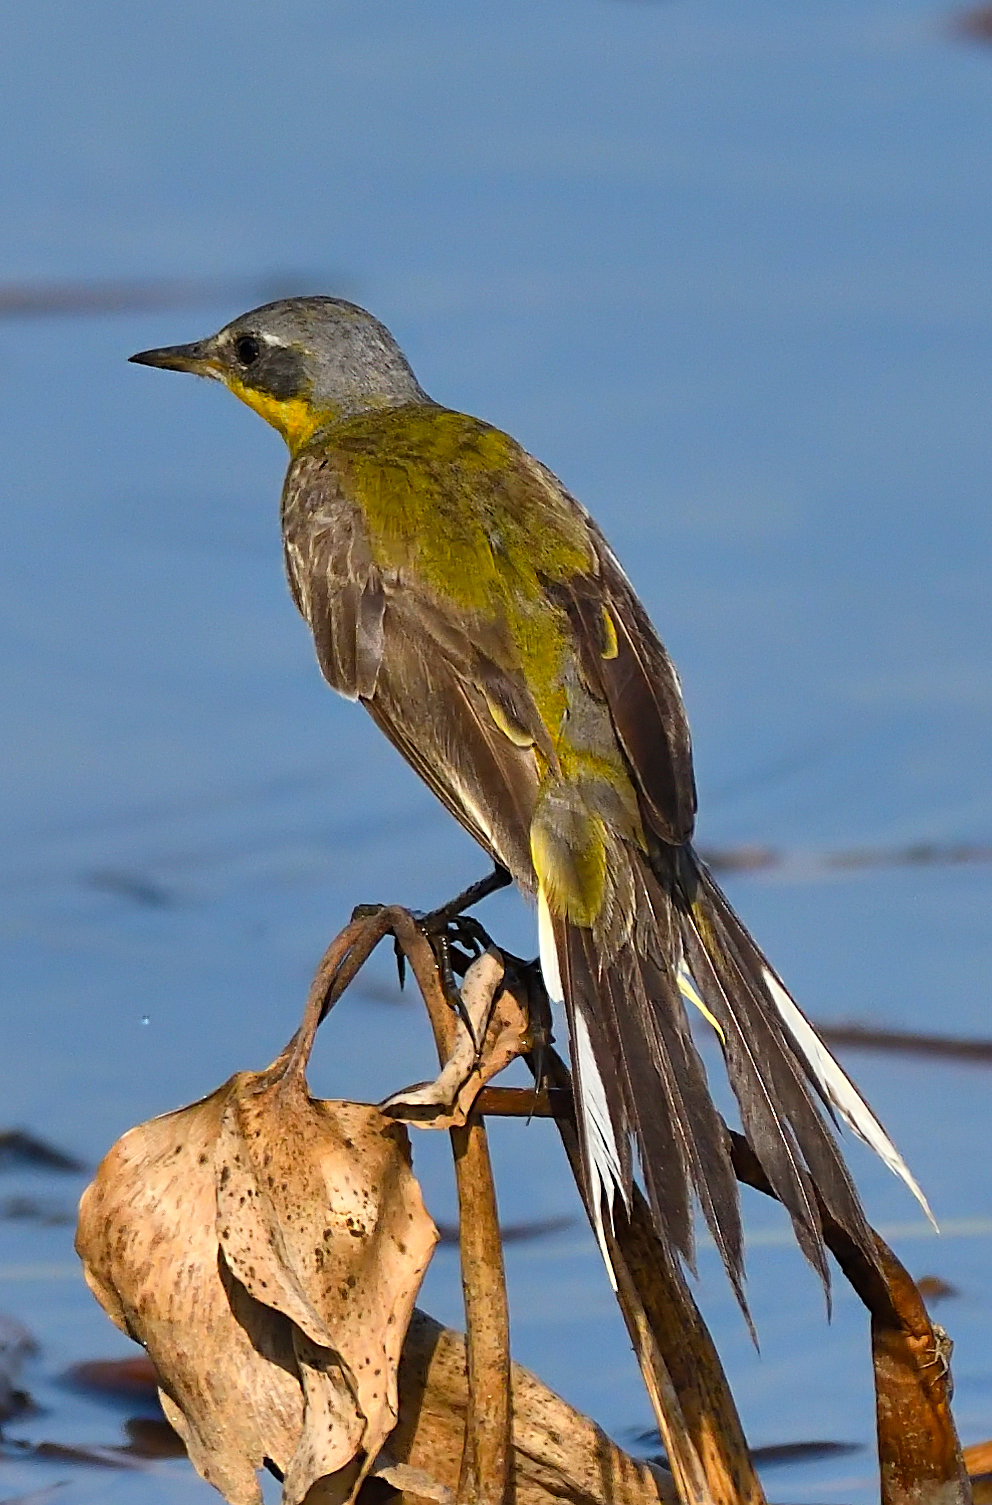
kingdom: Animalia
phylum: Chordata
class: Aves
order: Passeriformes
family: Motacillidae
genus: Motacilla
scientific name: Motacilla tschutschensis
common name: Eastern yellow wagtail
